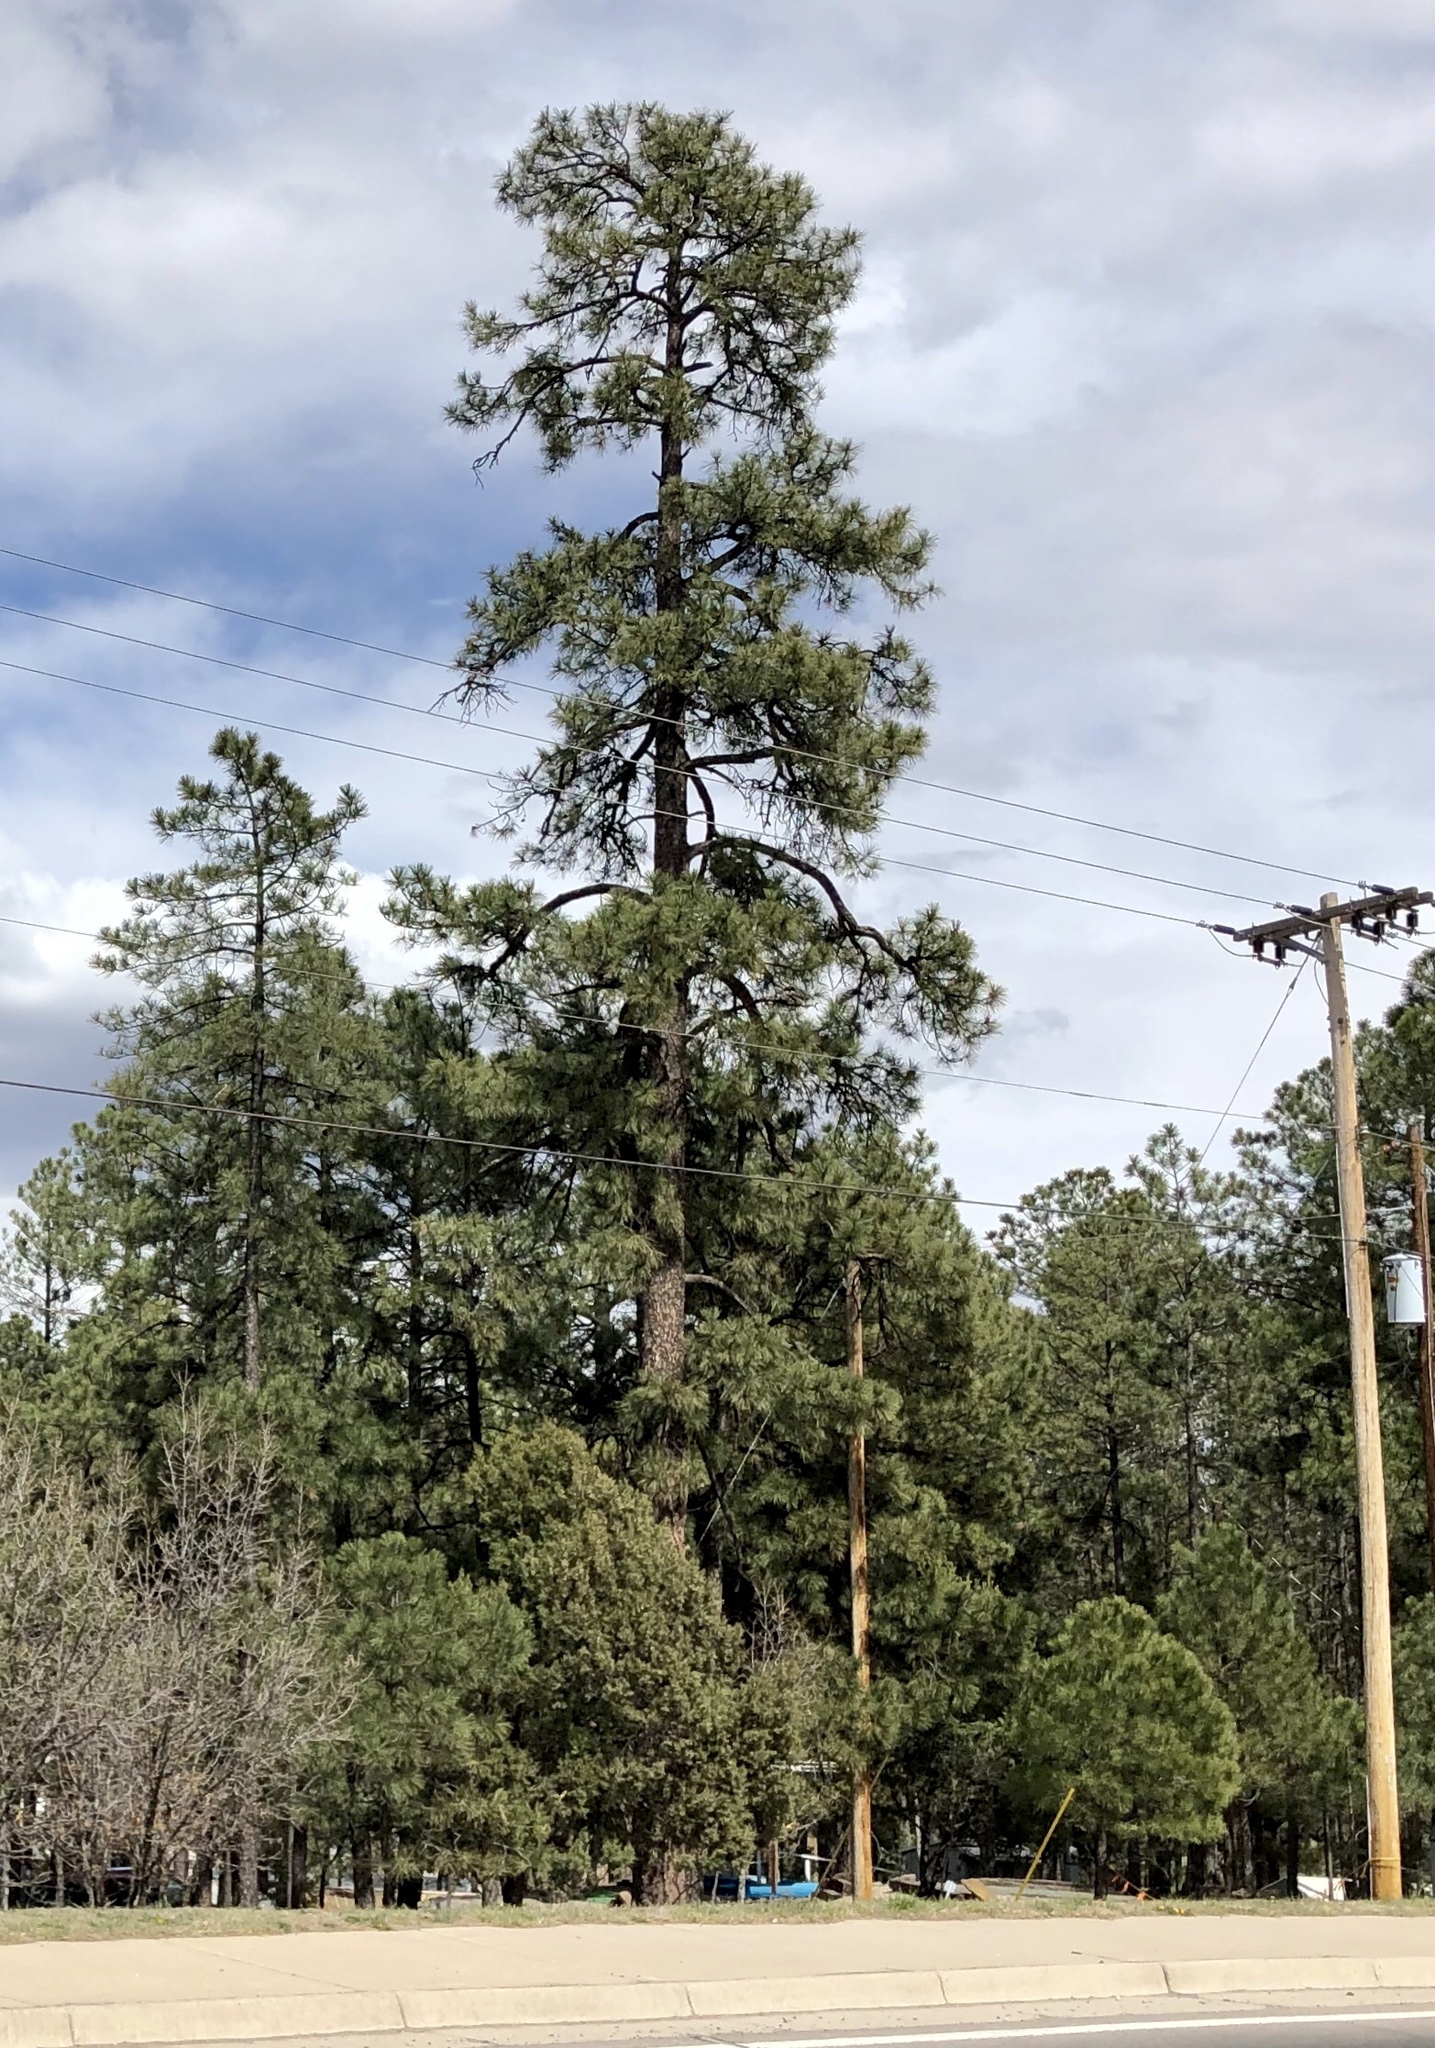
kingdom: Plantae
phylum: Tracheophyta
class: Pinopsida
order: Pinales
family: Pinaceae
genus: Pinus
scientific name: Pinus ponderosa
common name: Western yellow-pine
